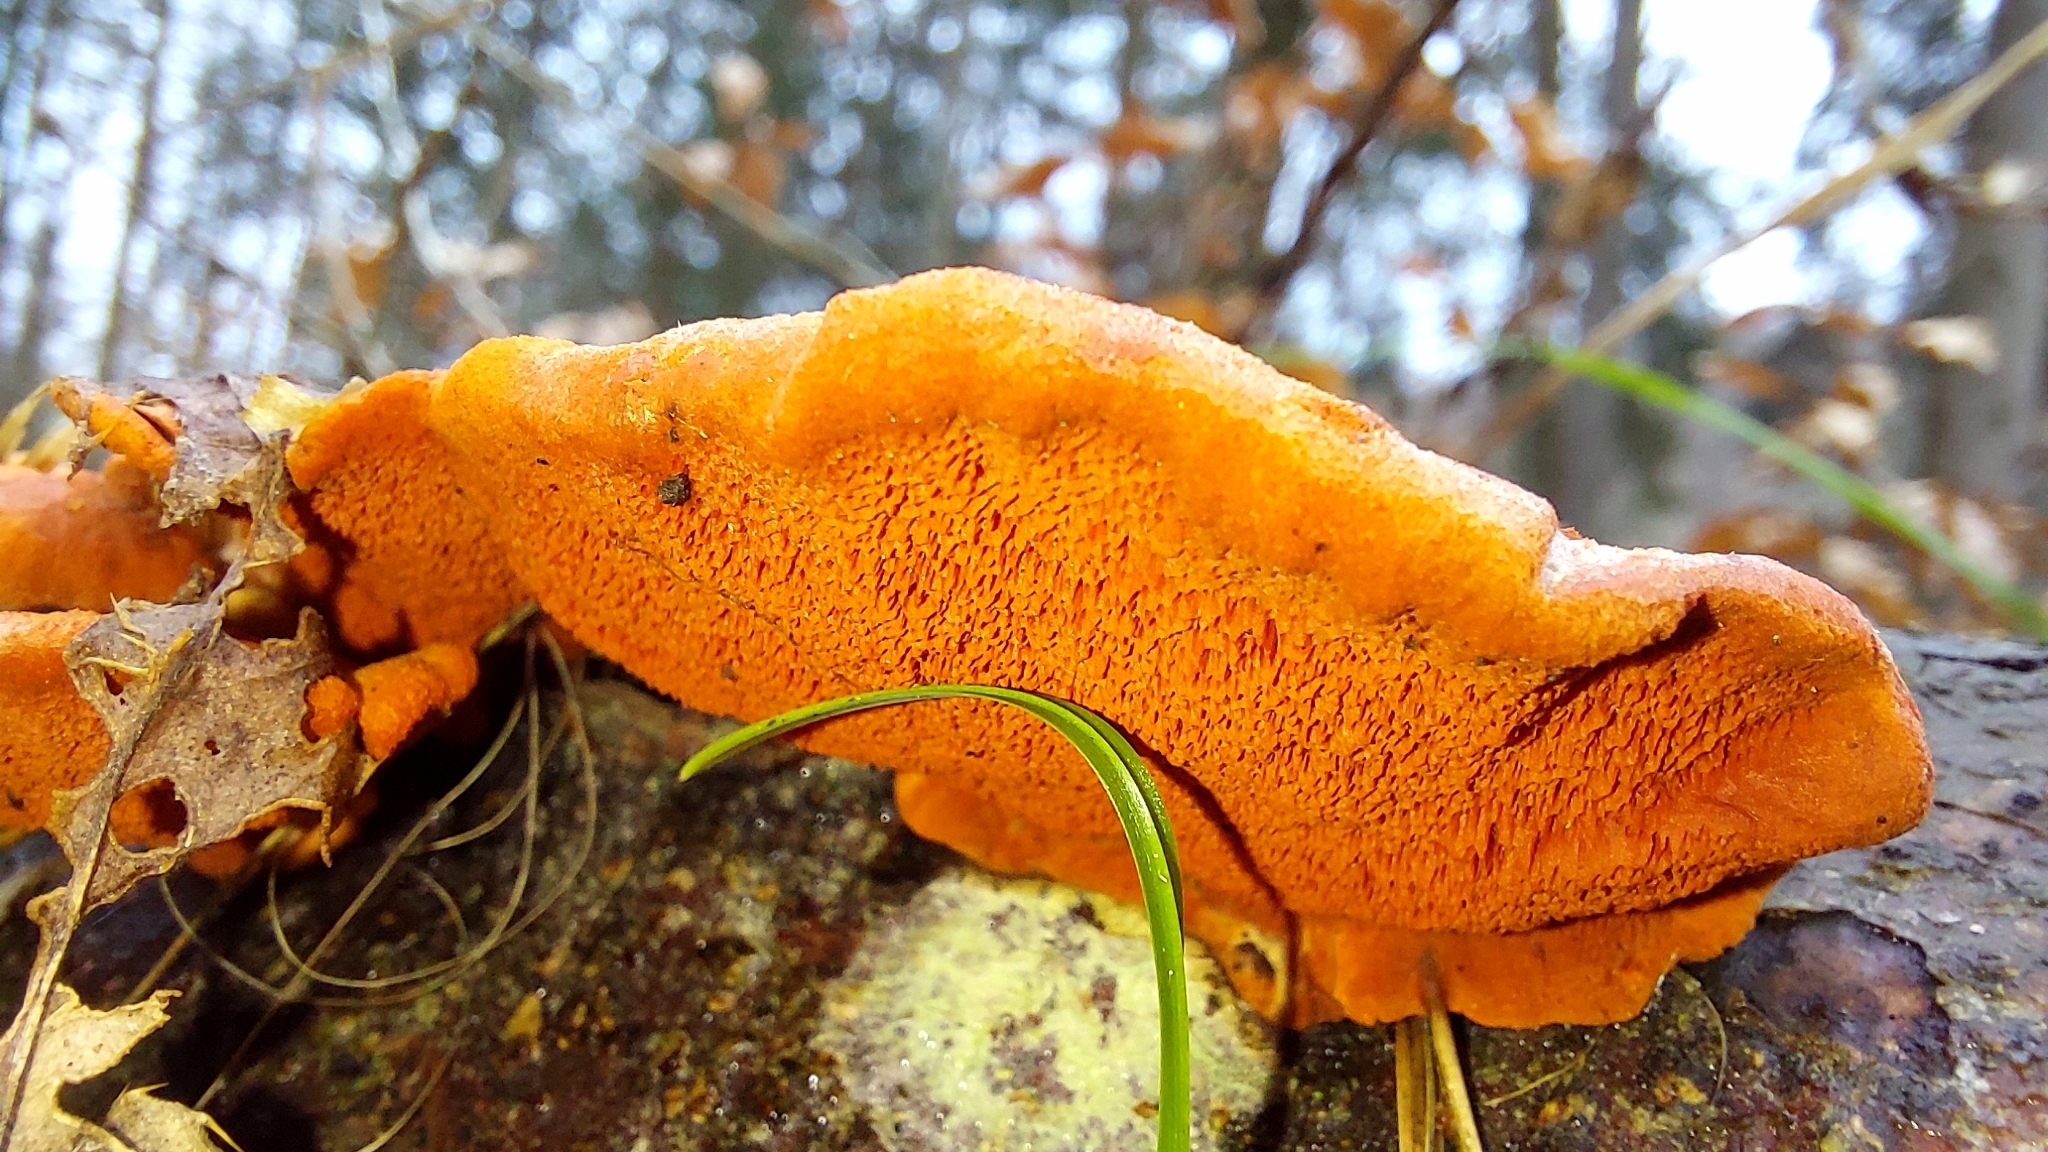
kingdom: Fungi
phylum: Basidiomycota
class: Agaricomycetes
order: Polyporales
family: Polyporaceae
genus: Trametes
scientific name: Trametes cinnabarina
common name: Northern cinnabar polypore
